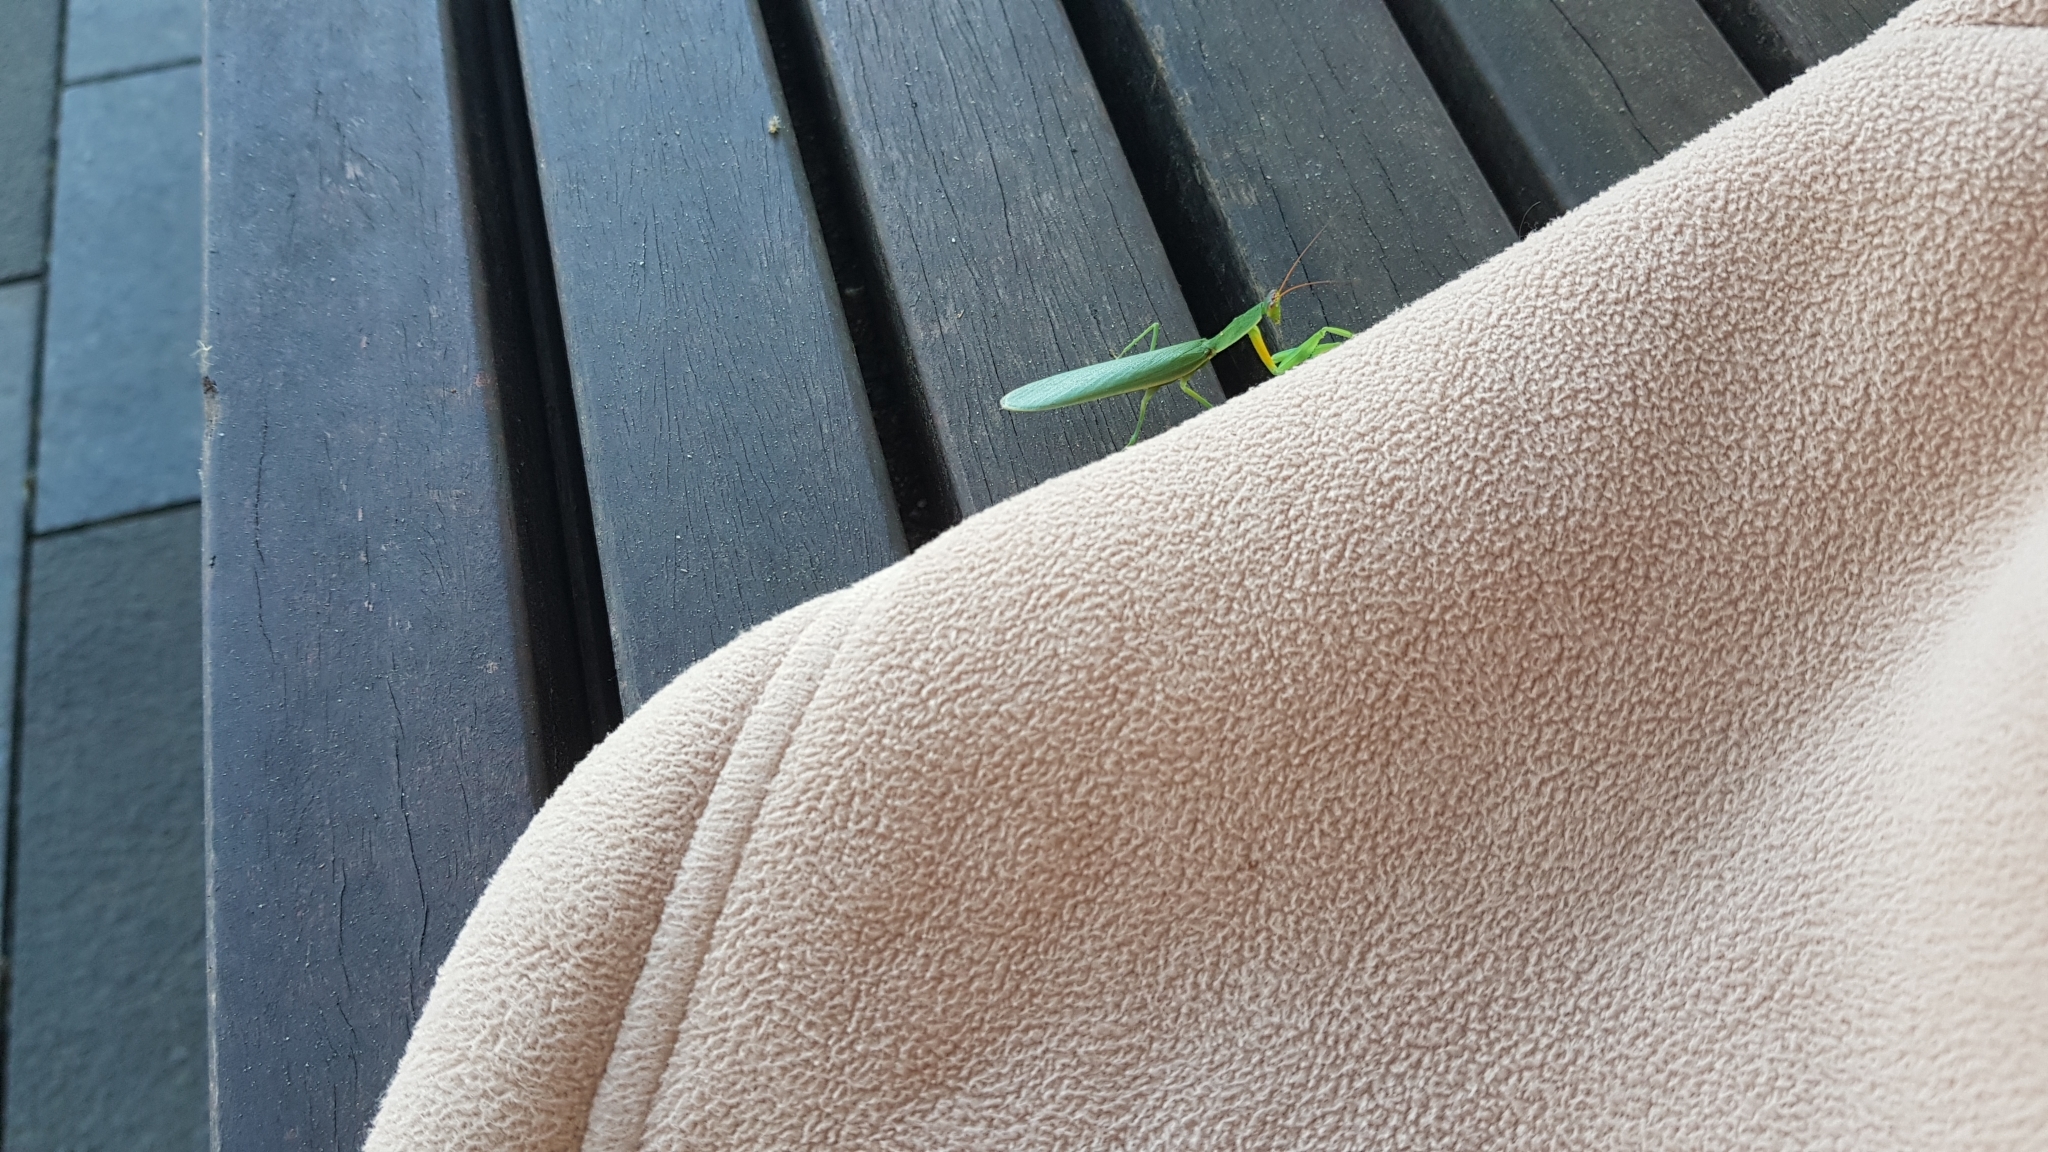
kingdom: Animalia
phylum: Arthropoda
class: Insecta
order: Mantodea
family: Mantidae
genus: Orthodera
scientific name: Orthodera ministralis
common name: Mantis
